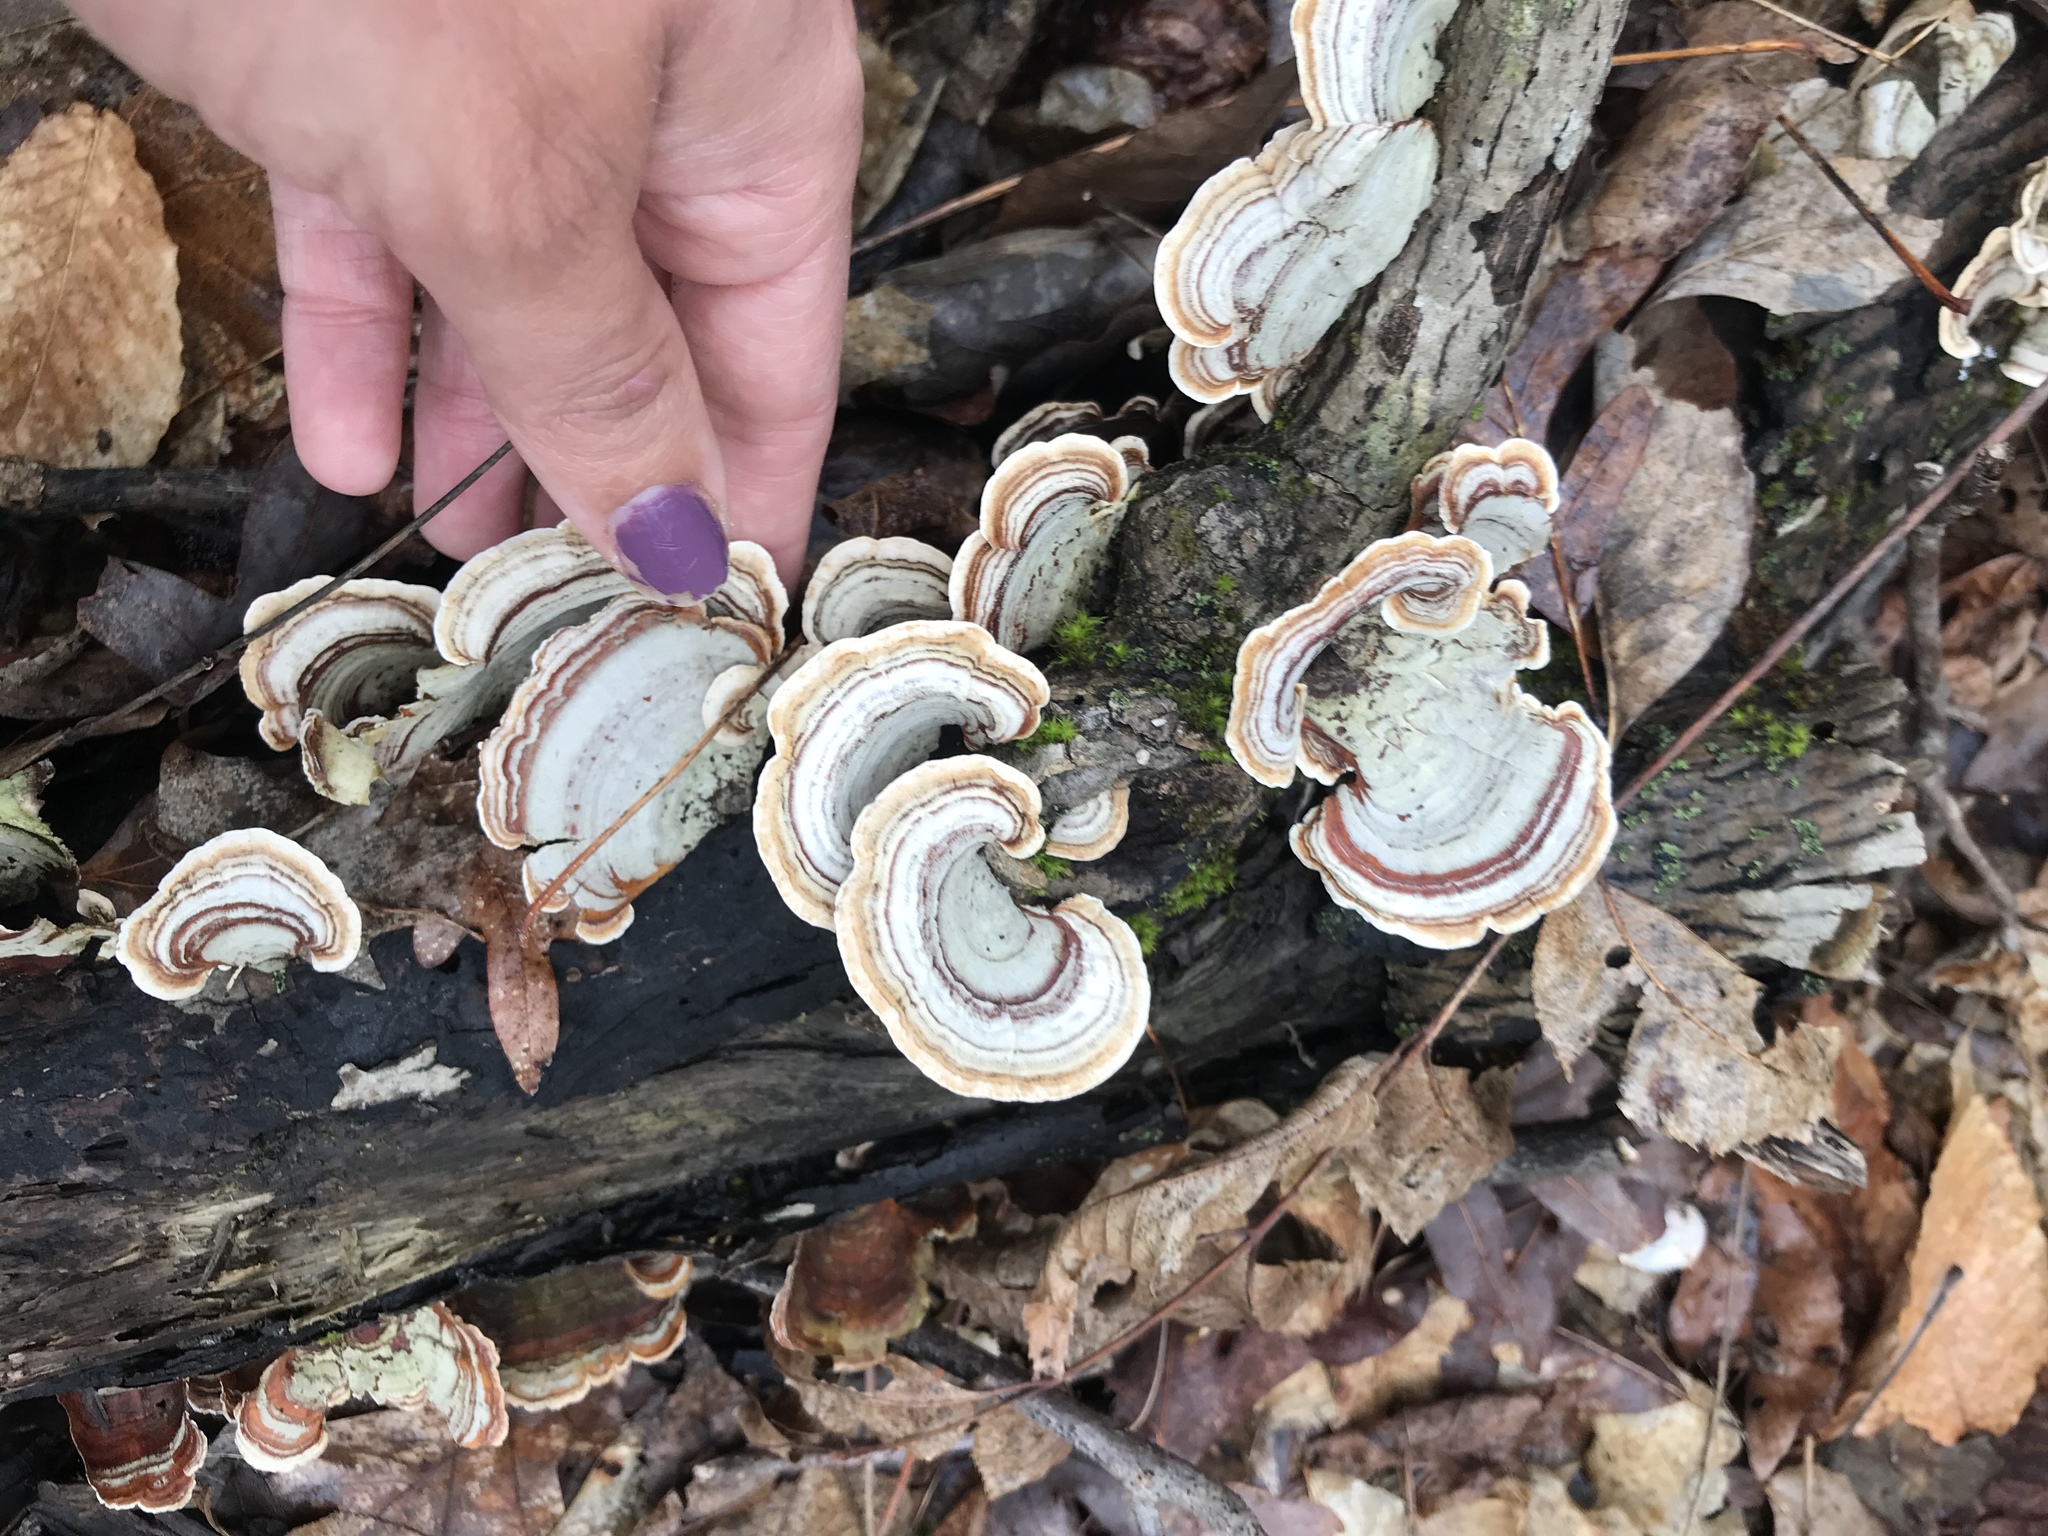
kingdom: Fungi
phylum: Basidiomycota
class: Agaricomycetes
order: Russulales
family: Stereaceae
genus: Stereum
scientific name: Stereum ostrea
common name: False turkeytail
